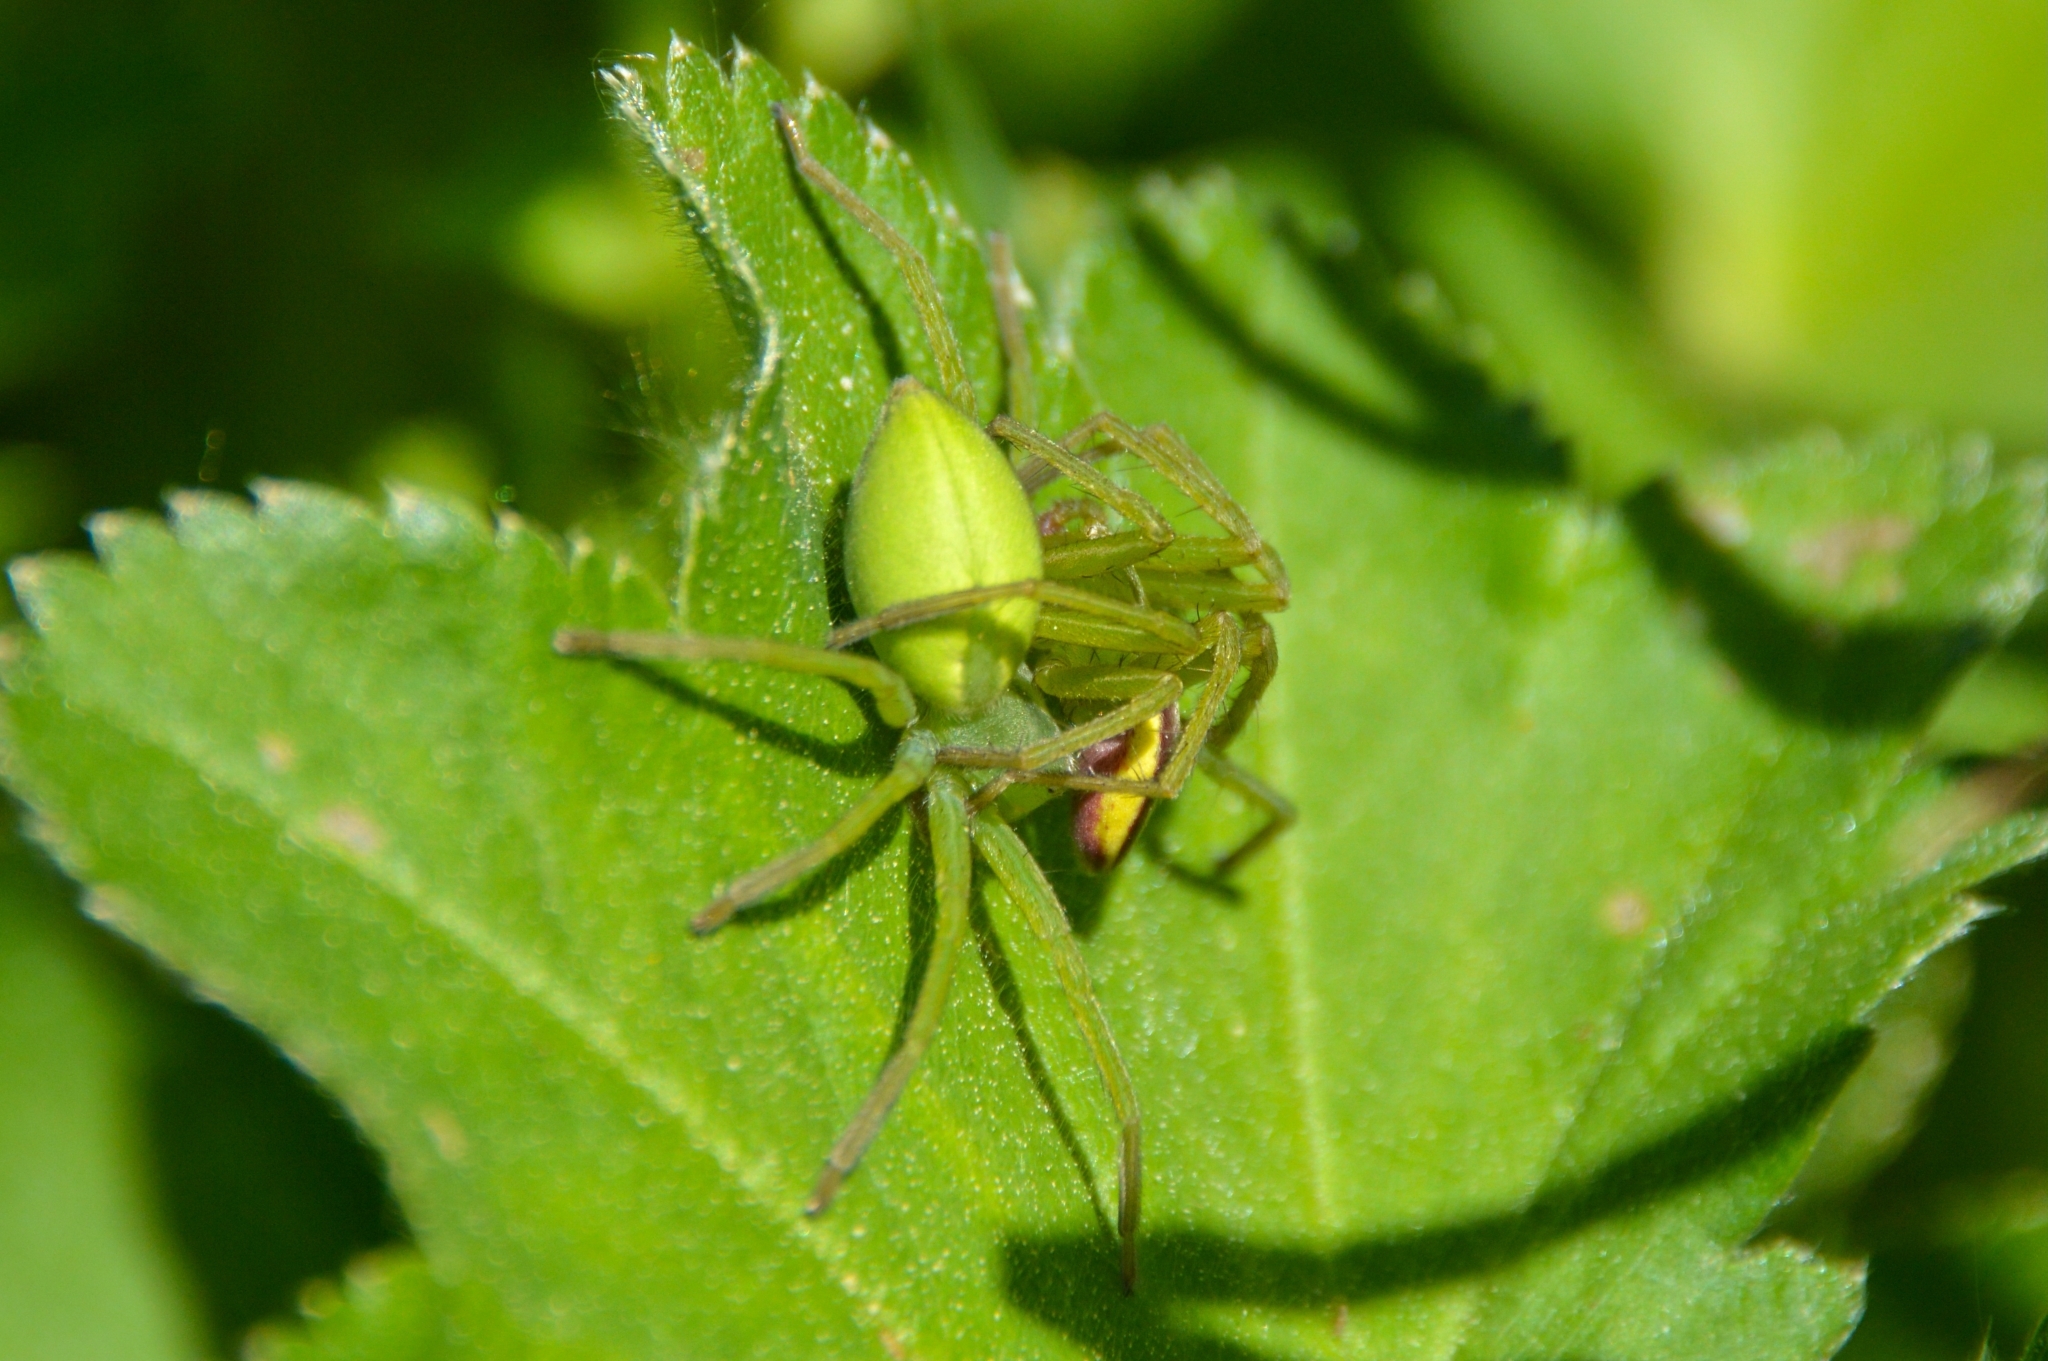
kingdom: Animalia
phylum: Arthropoda
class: Arachnida
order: Araneae
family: Sparassidae
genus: Micrommata
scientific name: Micrommata virescens
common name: Green spider
